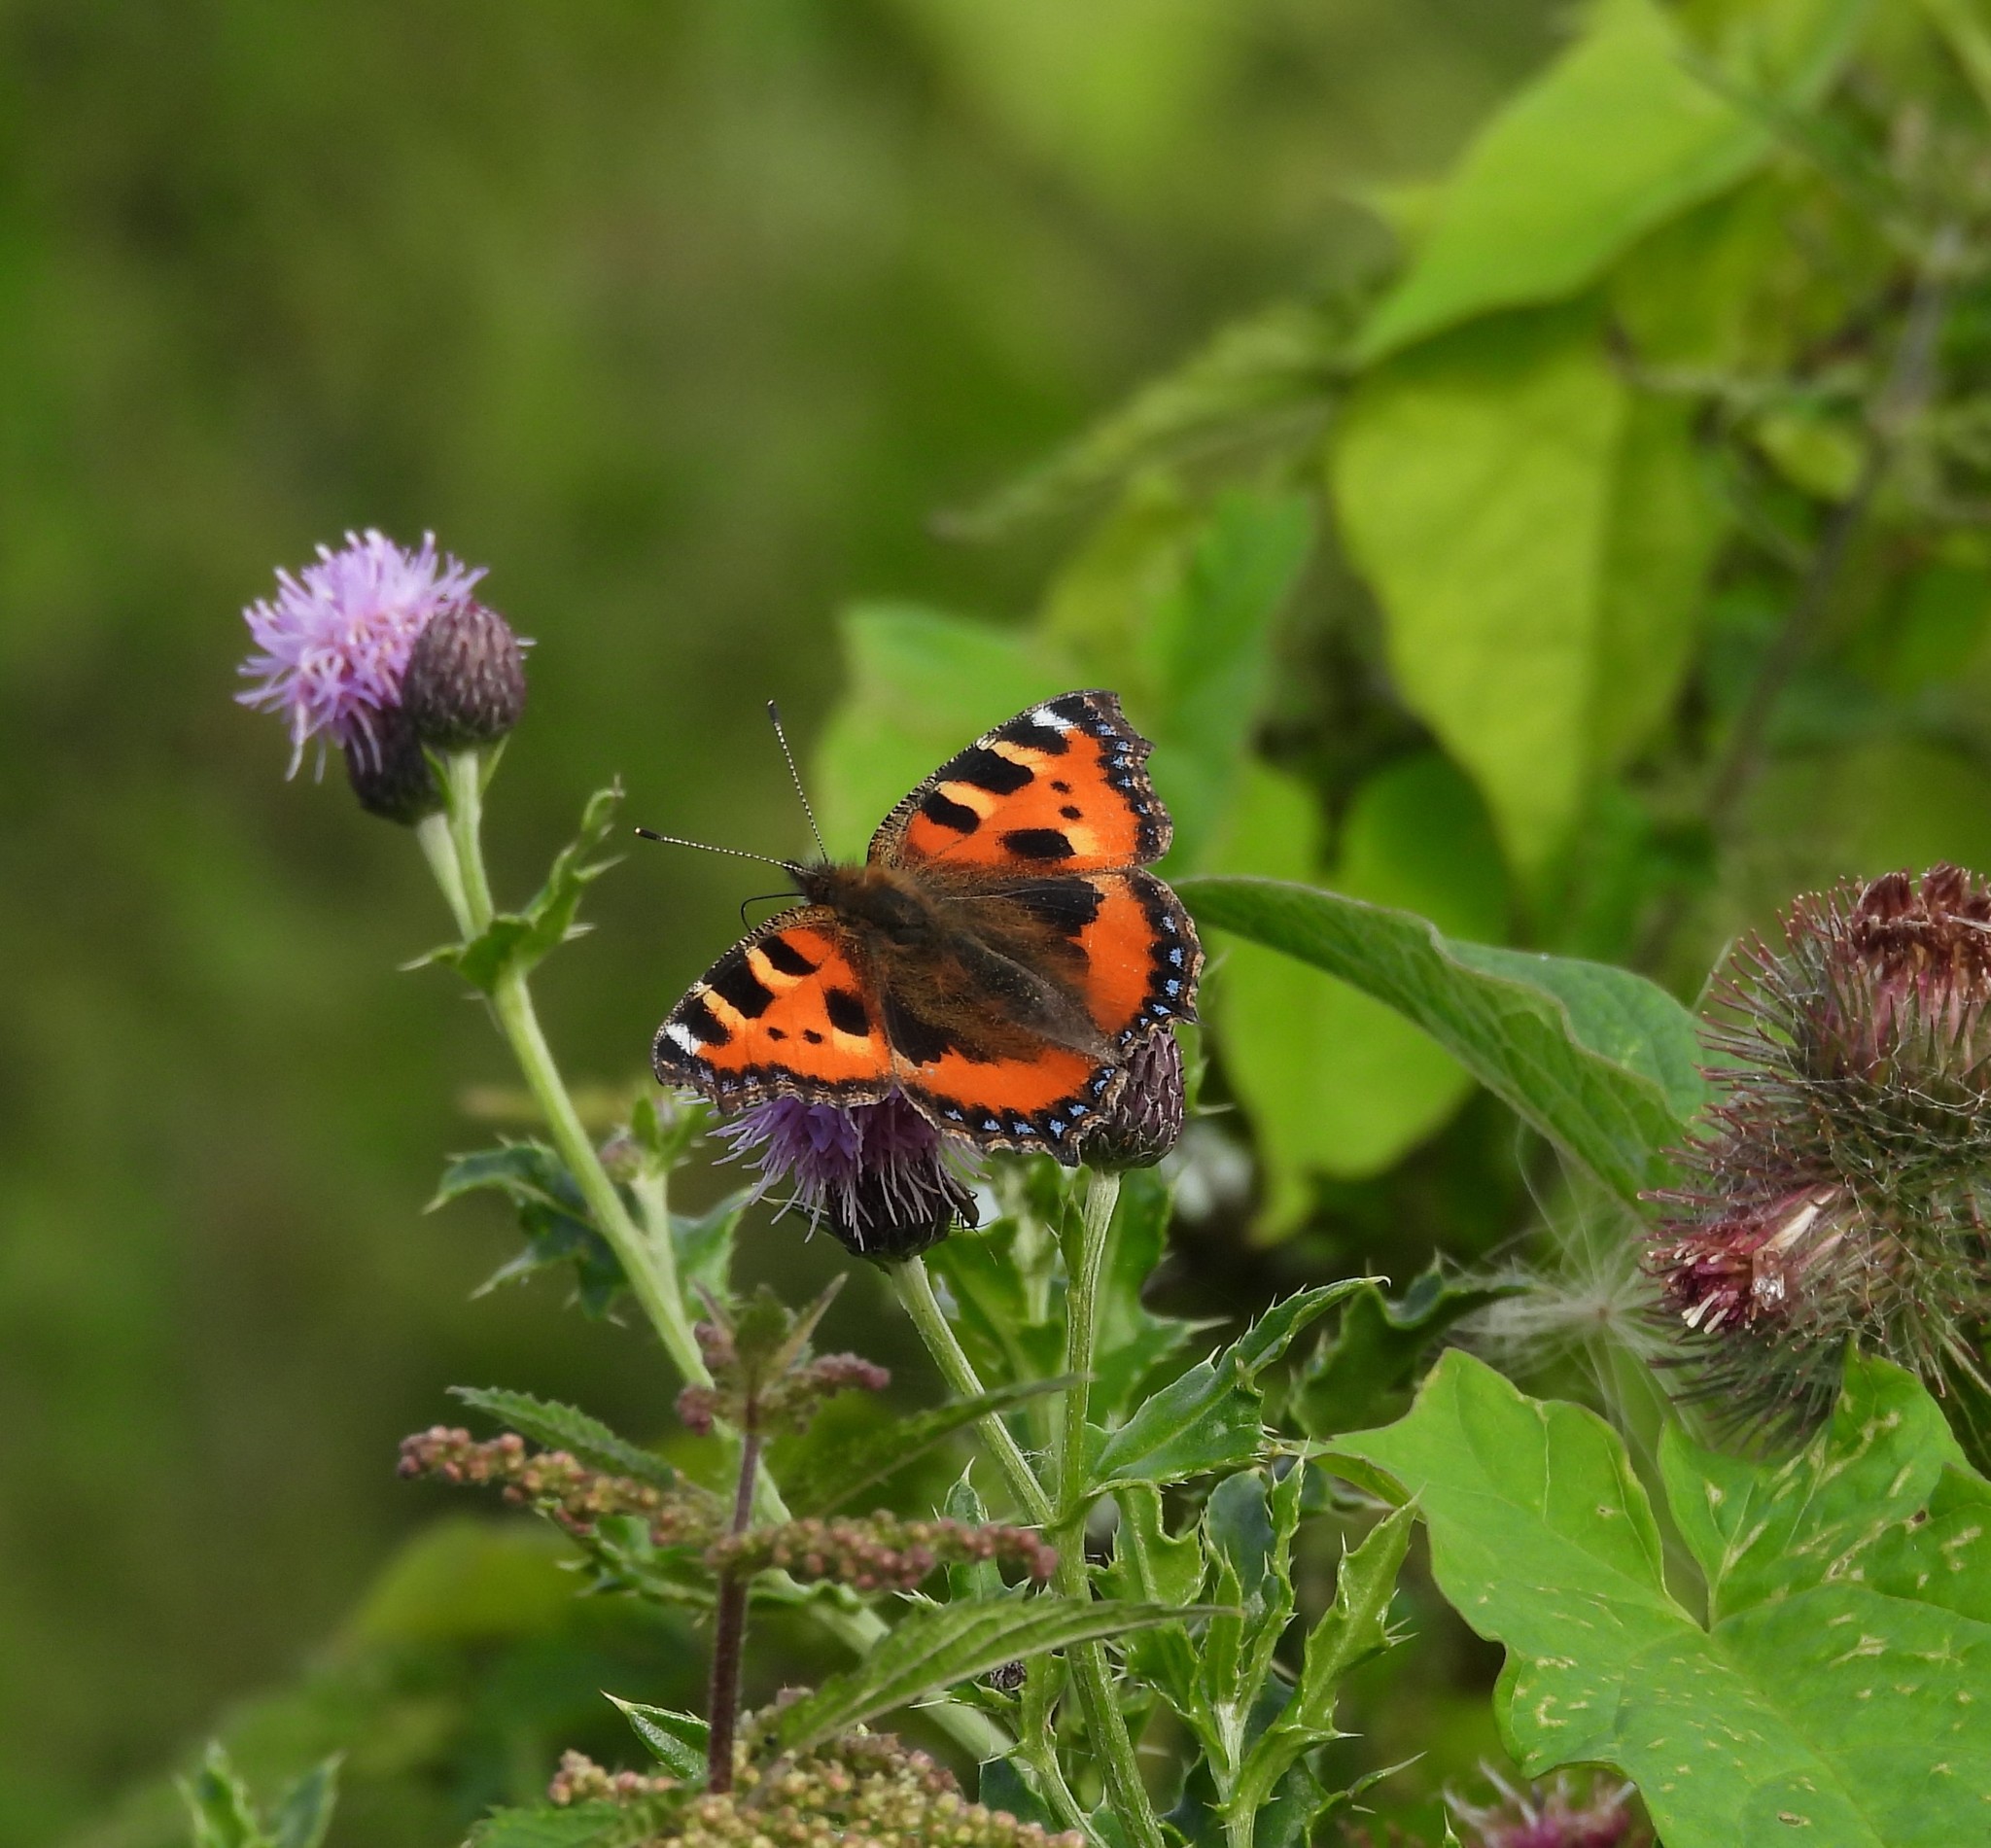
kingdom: Animalia
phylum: Arthropoda
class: Insecta
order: Lepidoptera
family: Nymphalidae
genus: Aglais
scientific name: Aglais urticae
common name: Small tortoiseshell
